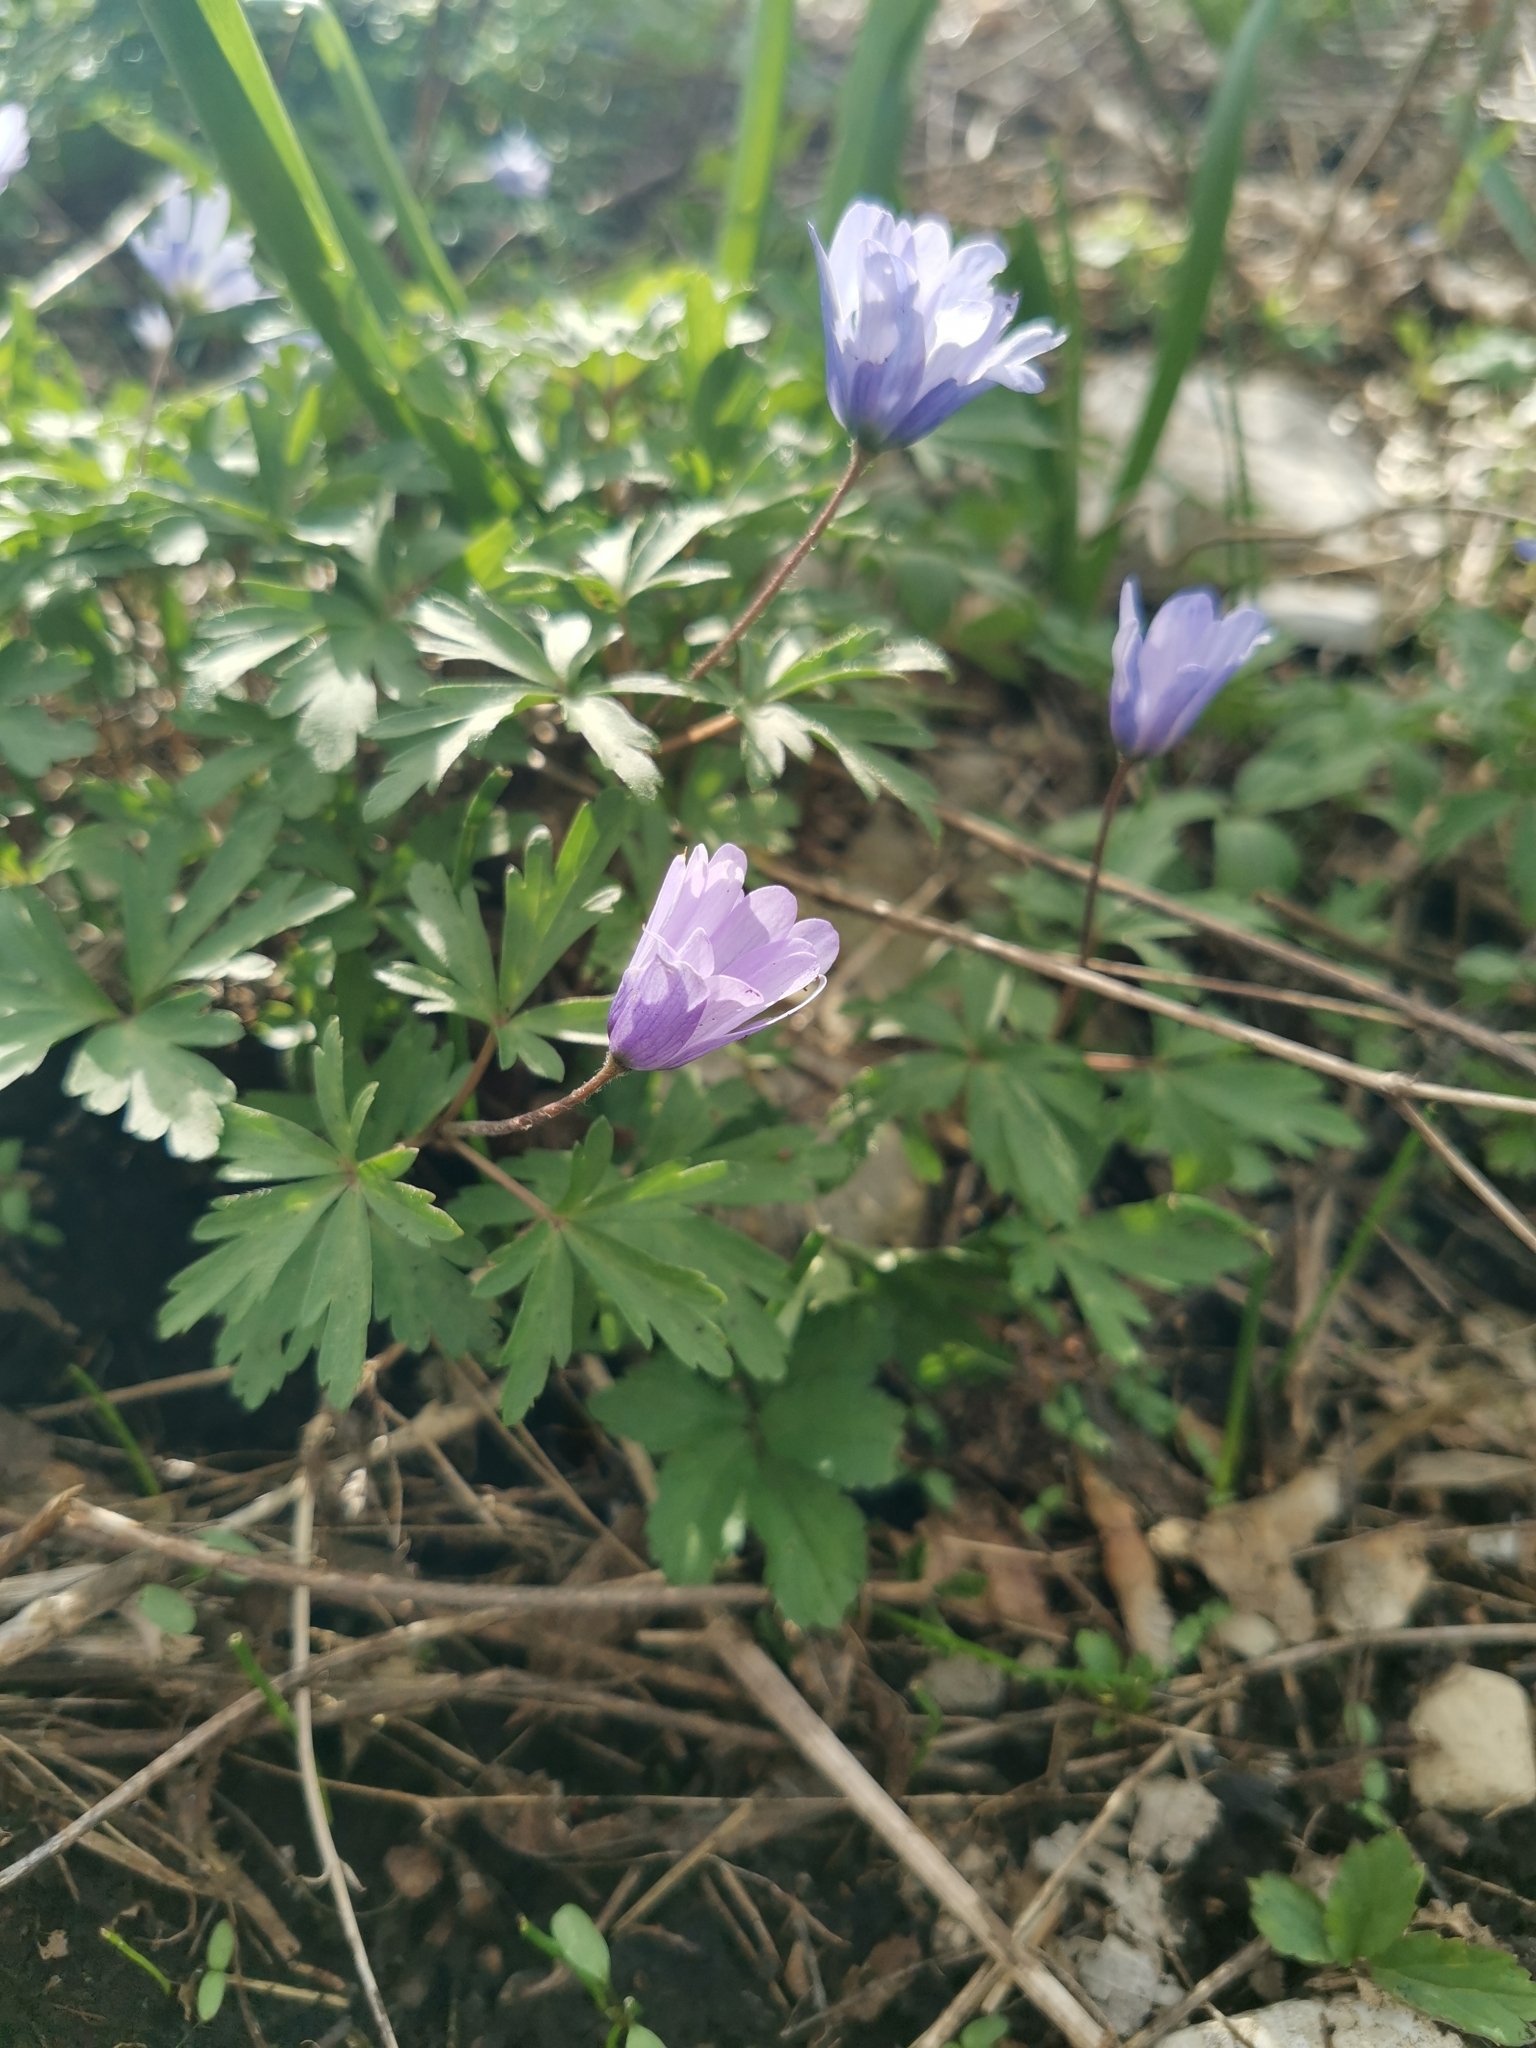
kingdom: Plantae
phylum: Tracheophyta
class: Magnoliopsida
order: Ranunculales
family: Ranunculaceae
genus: Anemone
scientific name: Anemone blanda
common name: Balkan anemone
